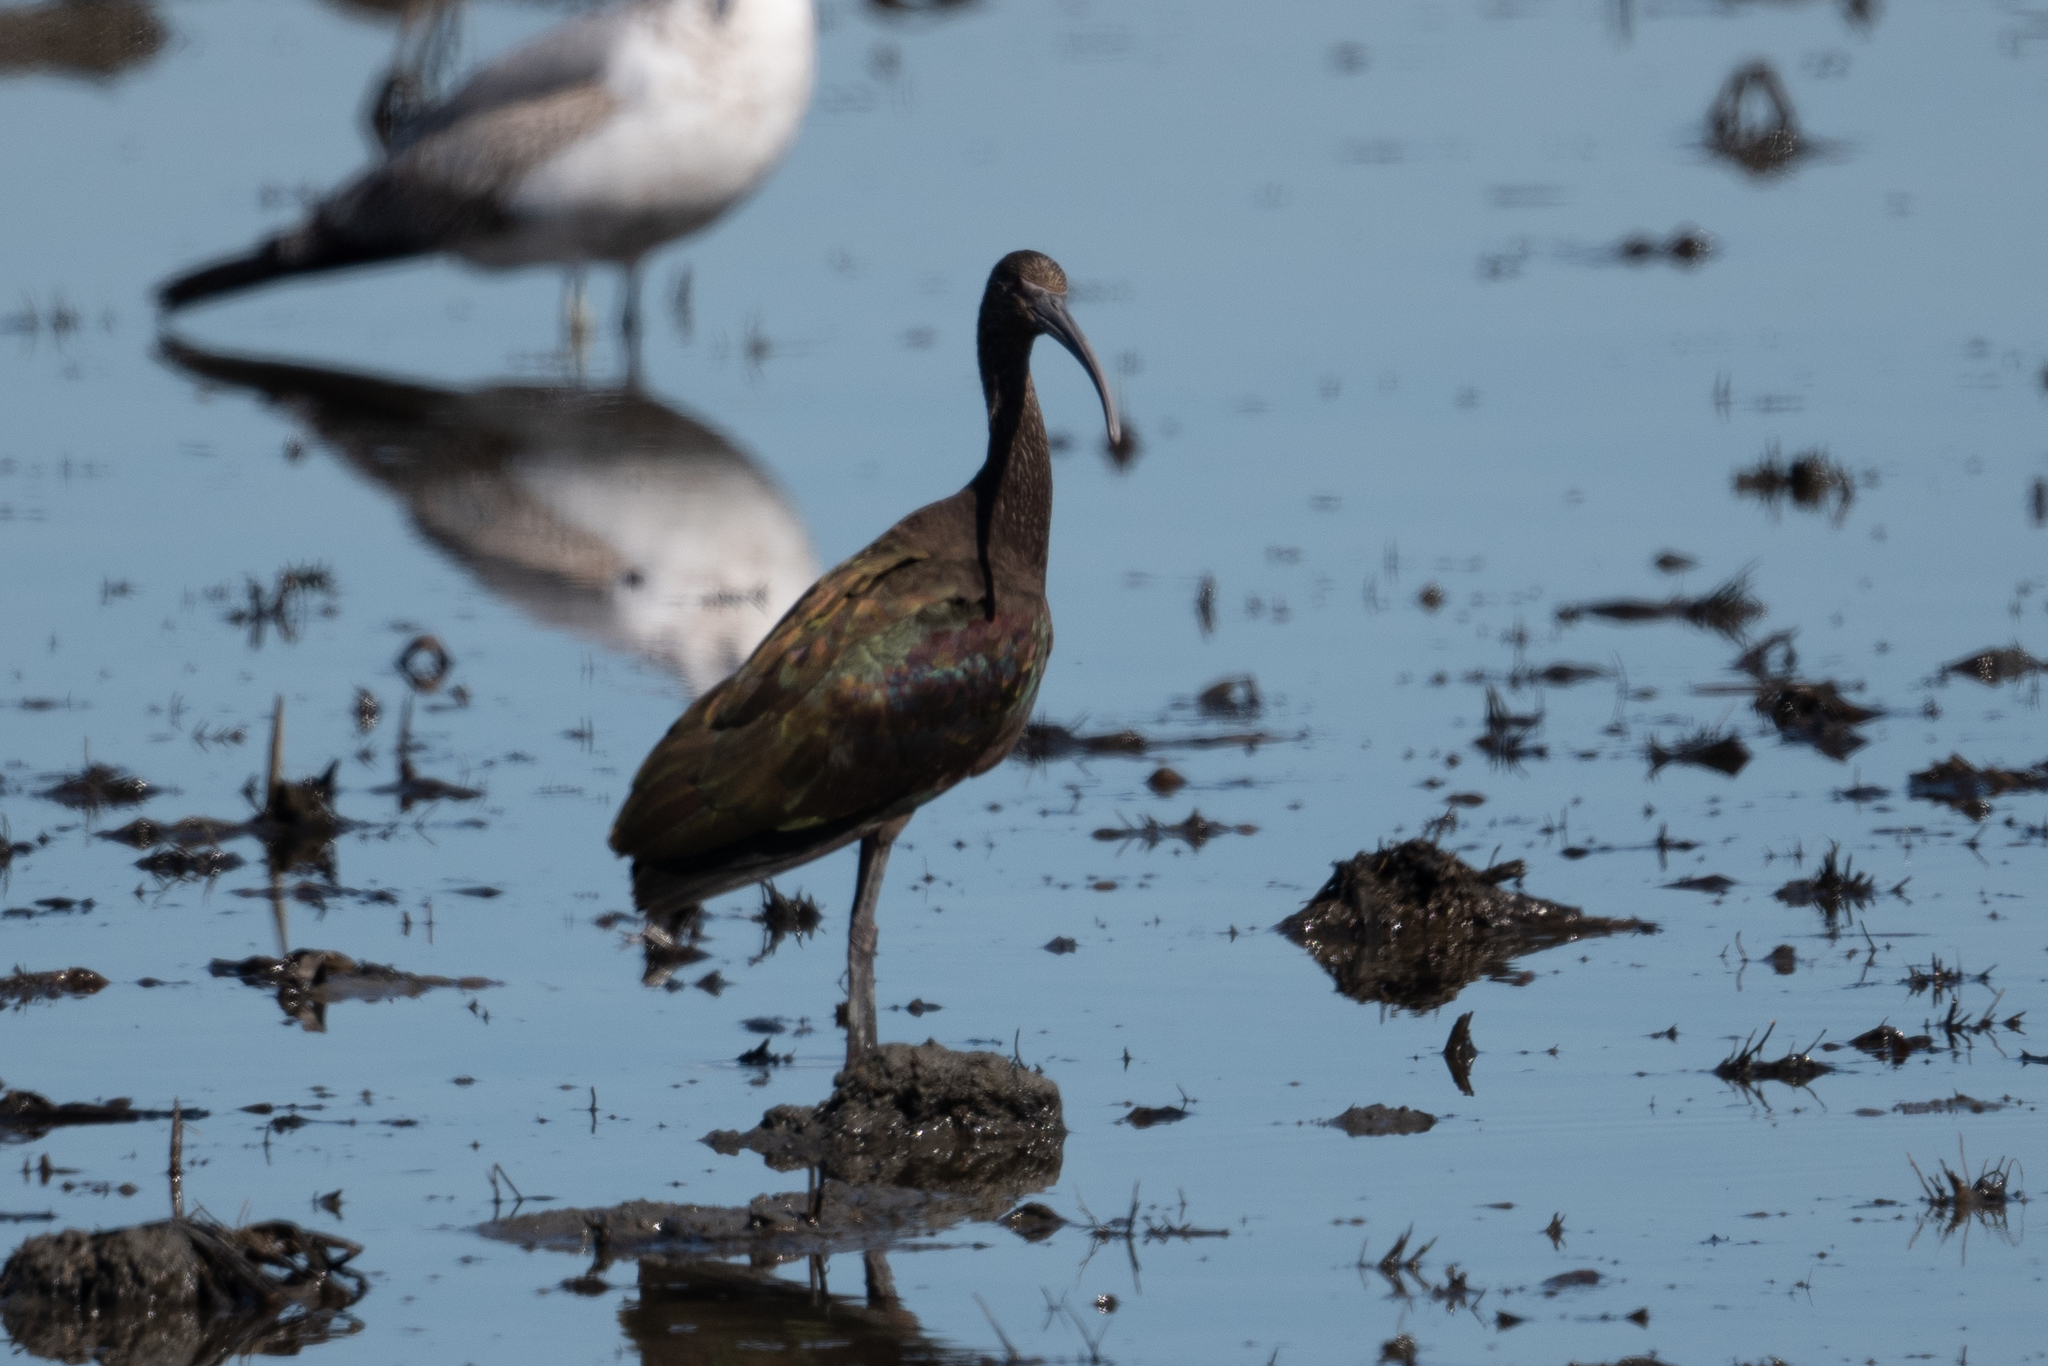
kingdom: Animalia
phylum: Chordata
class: Aves
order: Pelecaniformes
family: Threskiornithidae
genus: Plegadis
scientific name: Plegadis chihi
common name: White-faced ibis
